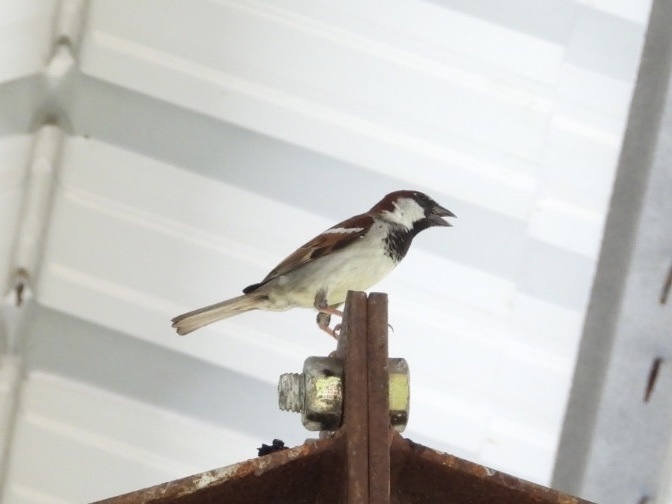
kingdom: Animalia
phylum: Chordata
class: Aves
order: Passeriformes
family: Passeridae
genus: Passer
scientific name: Passer domesticus
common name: House sparrow
